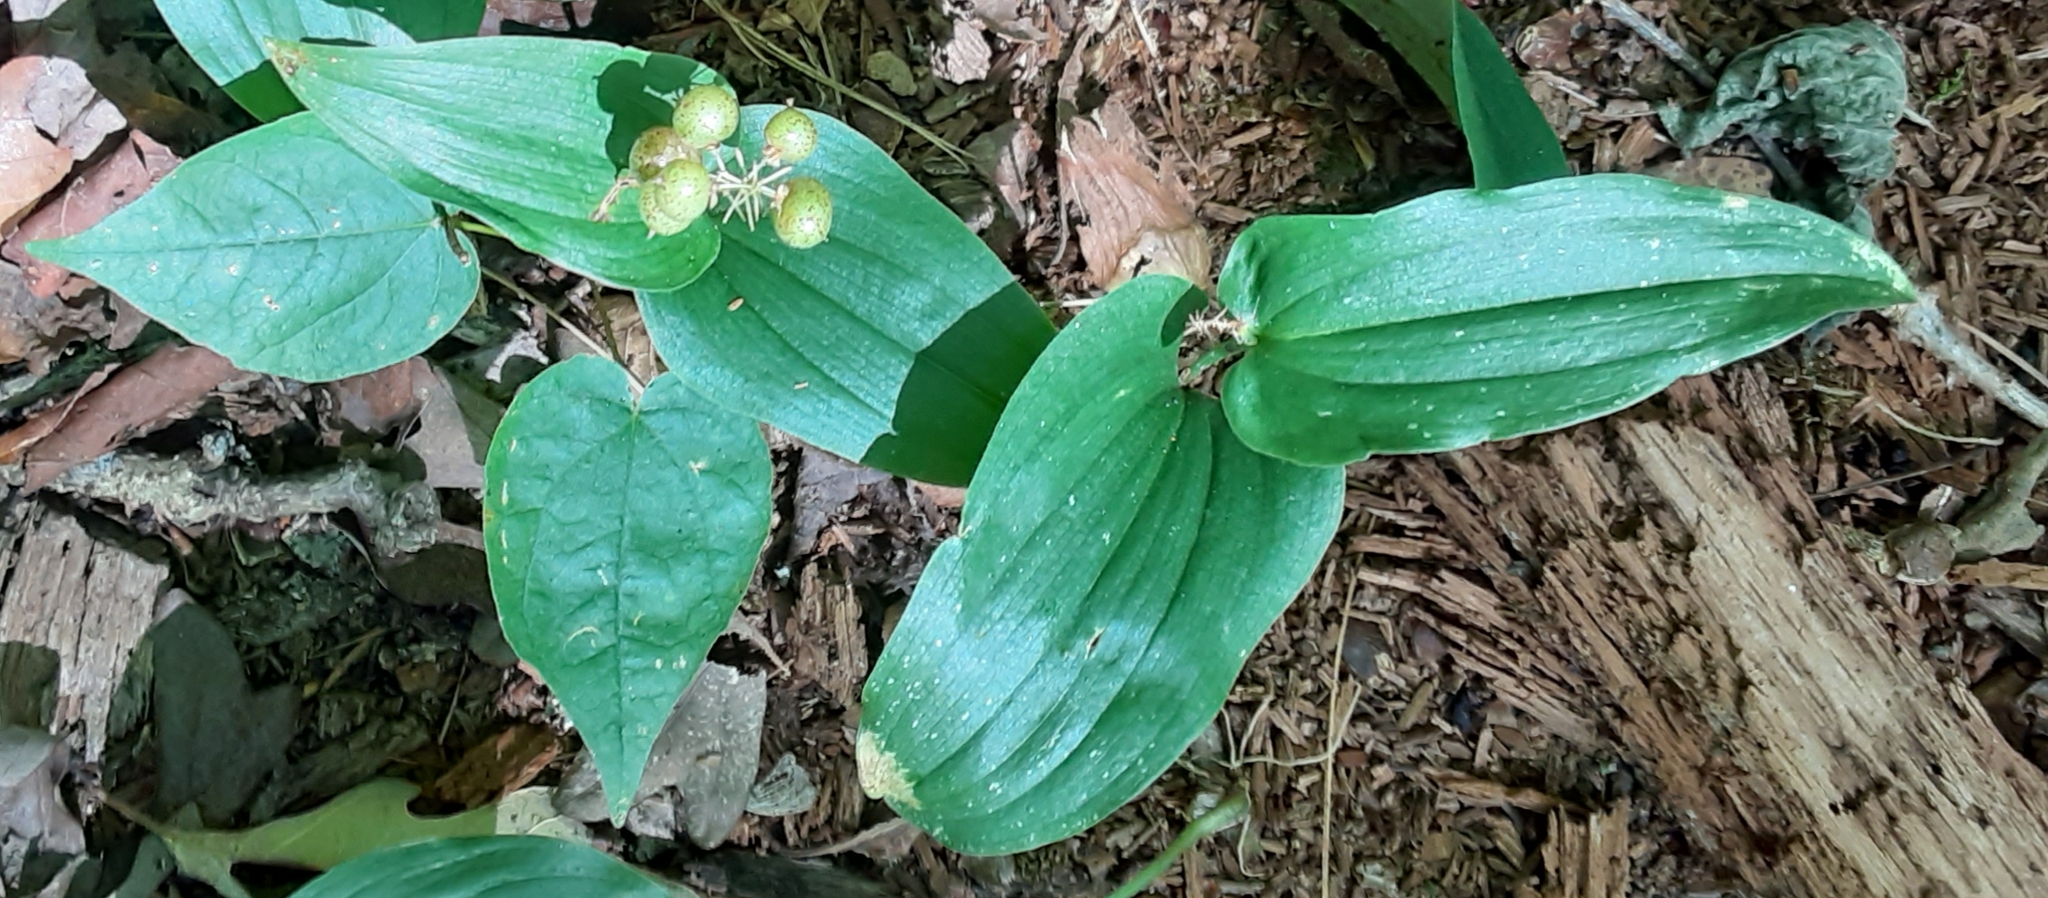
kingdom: Plantae
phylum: Tracheophyta
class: Liliopsida
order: Asparagales
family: Asparagaceae
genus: Maianthemum
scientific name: Maianthemum canadense
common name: False lily-of-the-valley
